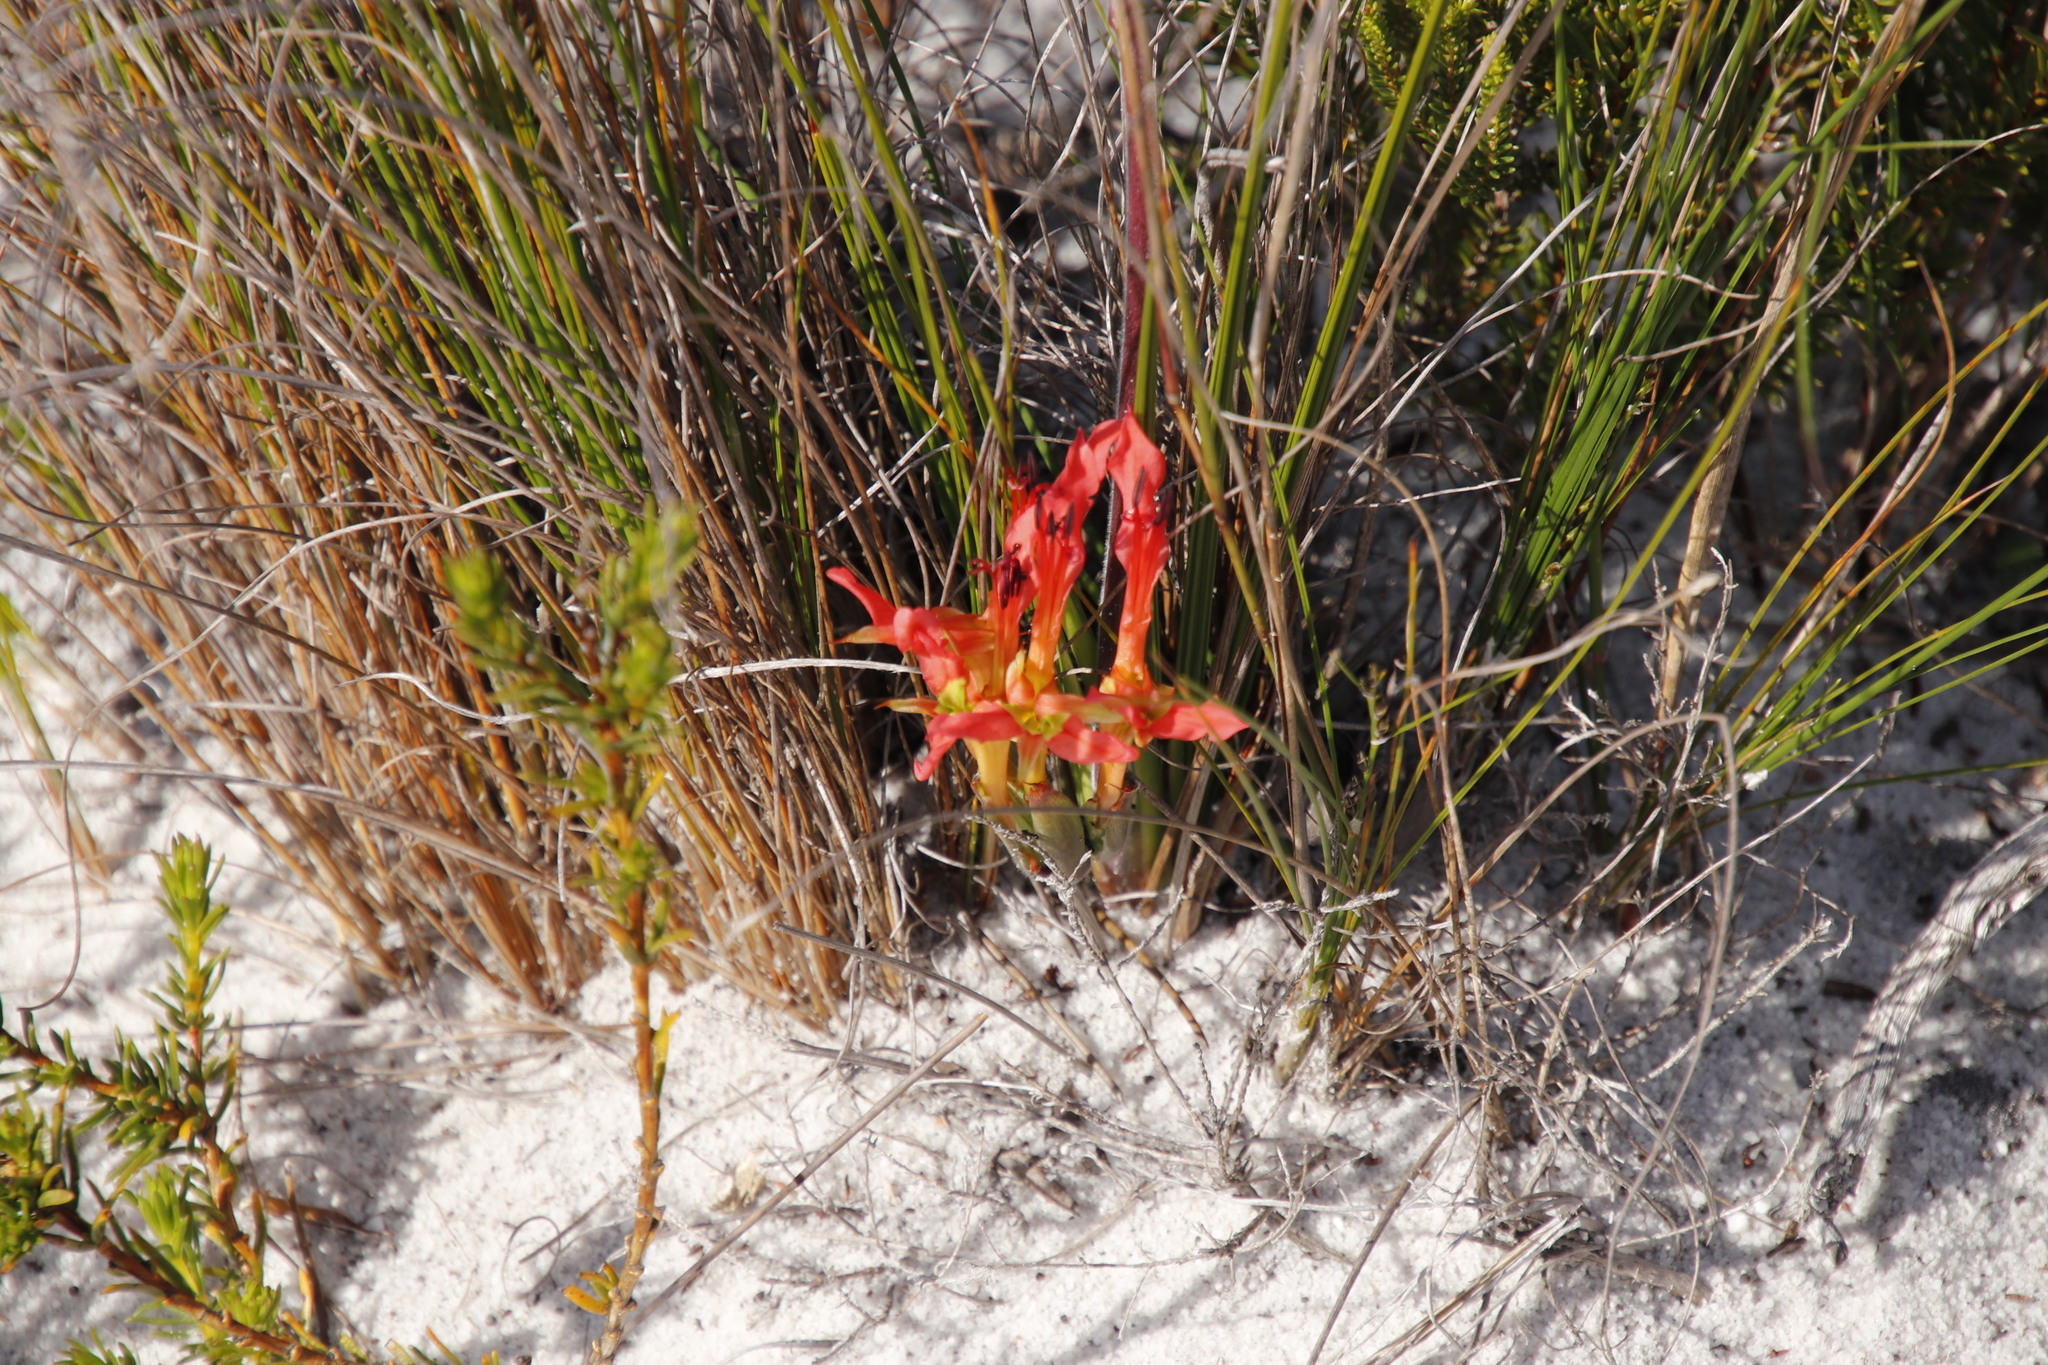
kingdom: Plantae
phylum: Tracheophyta
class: Liliopsida
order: Asparagales
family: Iridaceae
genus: Babiana
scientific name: Babiana ringens
